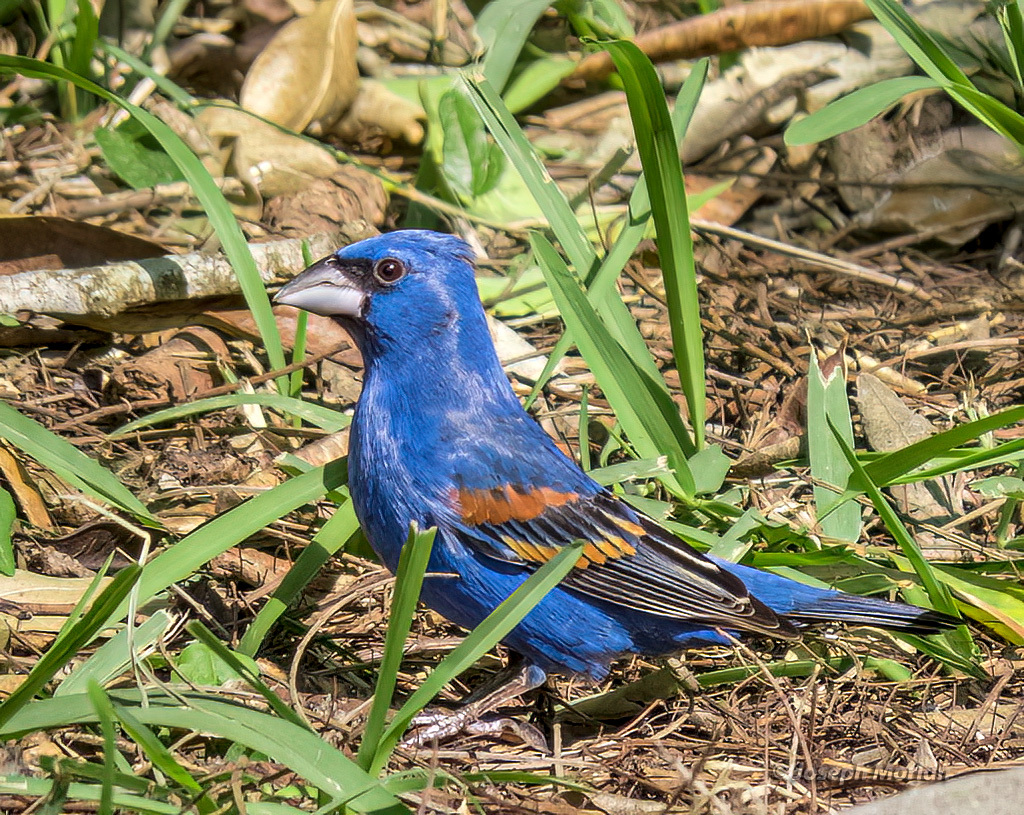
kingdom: Animalia
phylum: Chordata
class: Aves
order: Passeriformes
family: Cardinalidae
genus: Passerina
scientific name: Passerina caerulea
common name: Blue grosbeak
